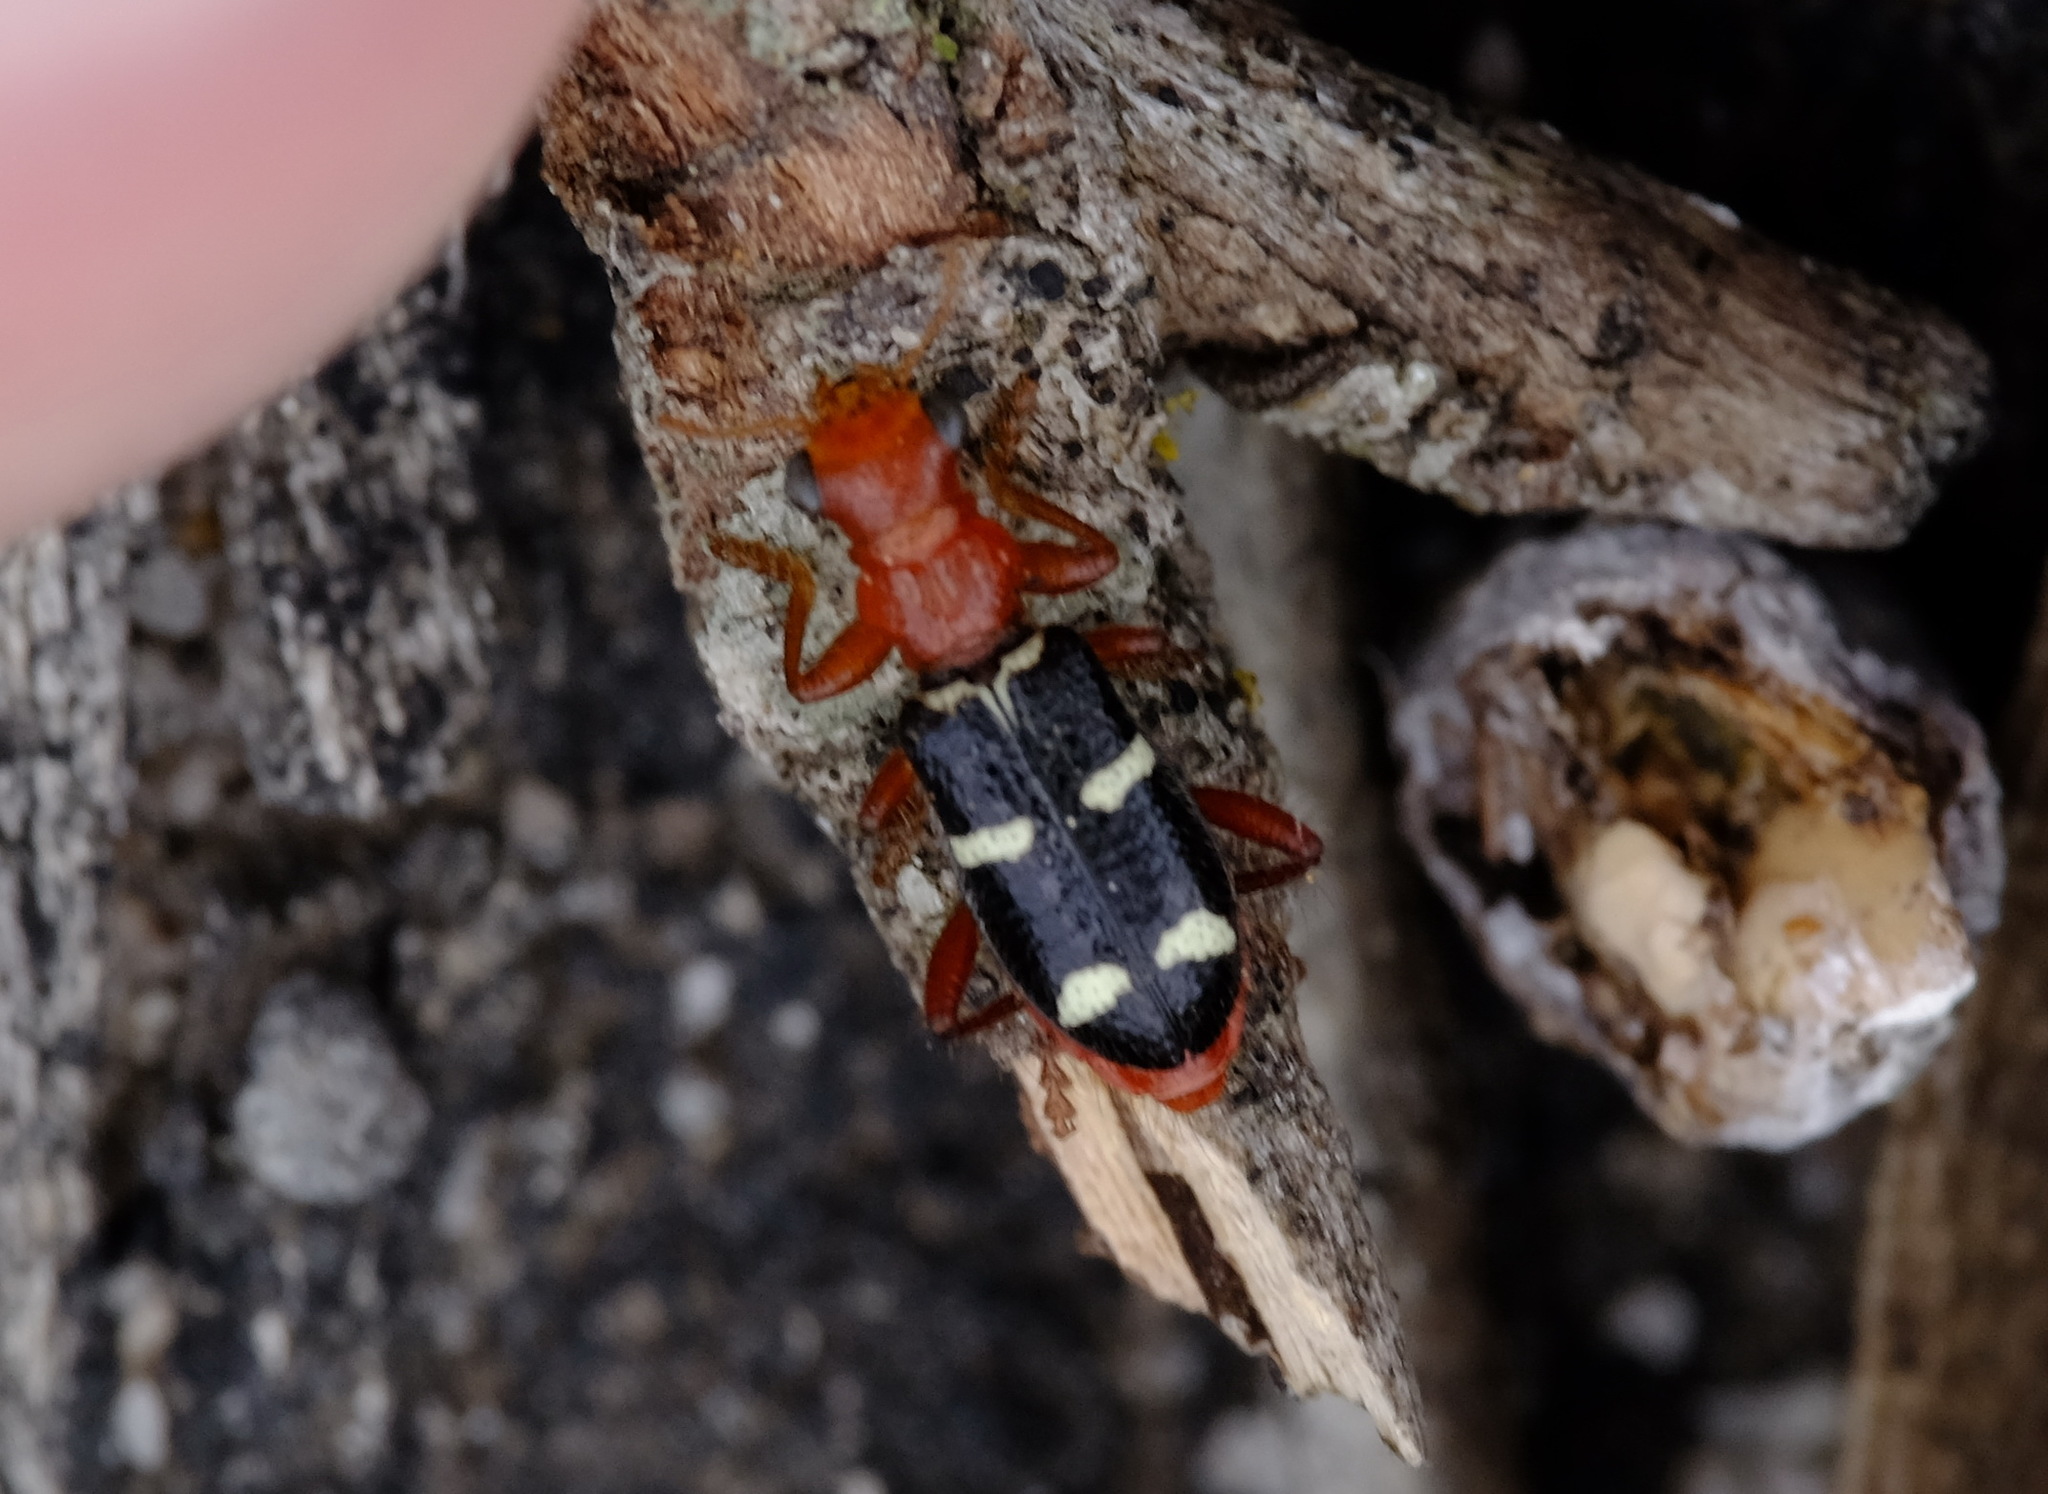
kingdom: Animalia
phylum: Arthropoda
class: Insecta
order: Coleoptera
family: Cleridae
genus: Lemidia
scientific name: Lemidia
